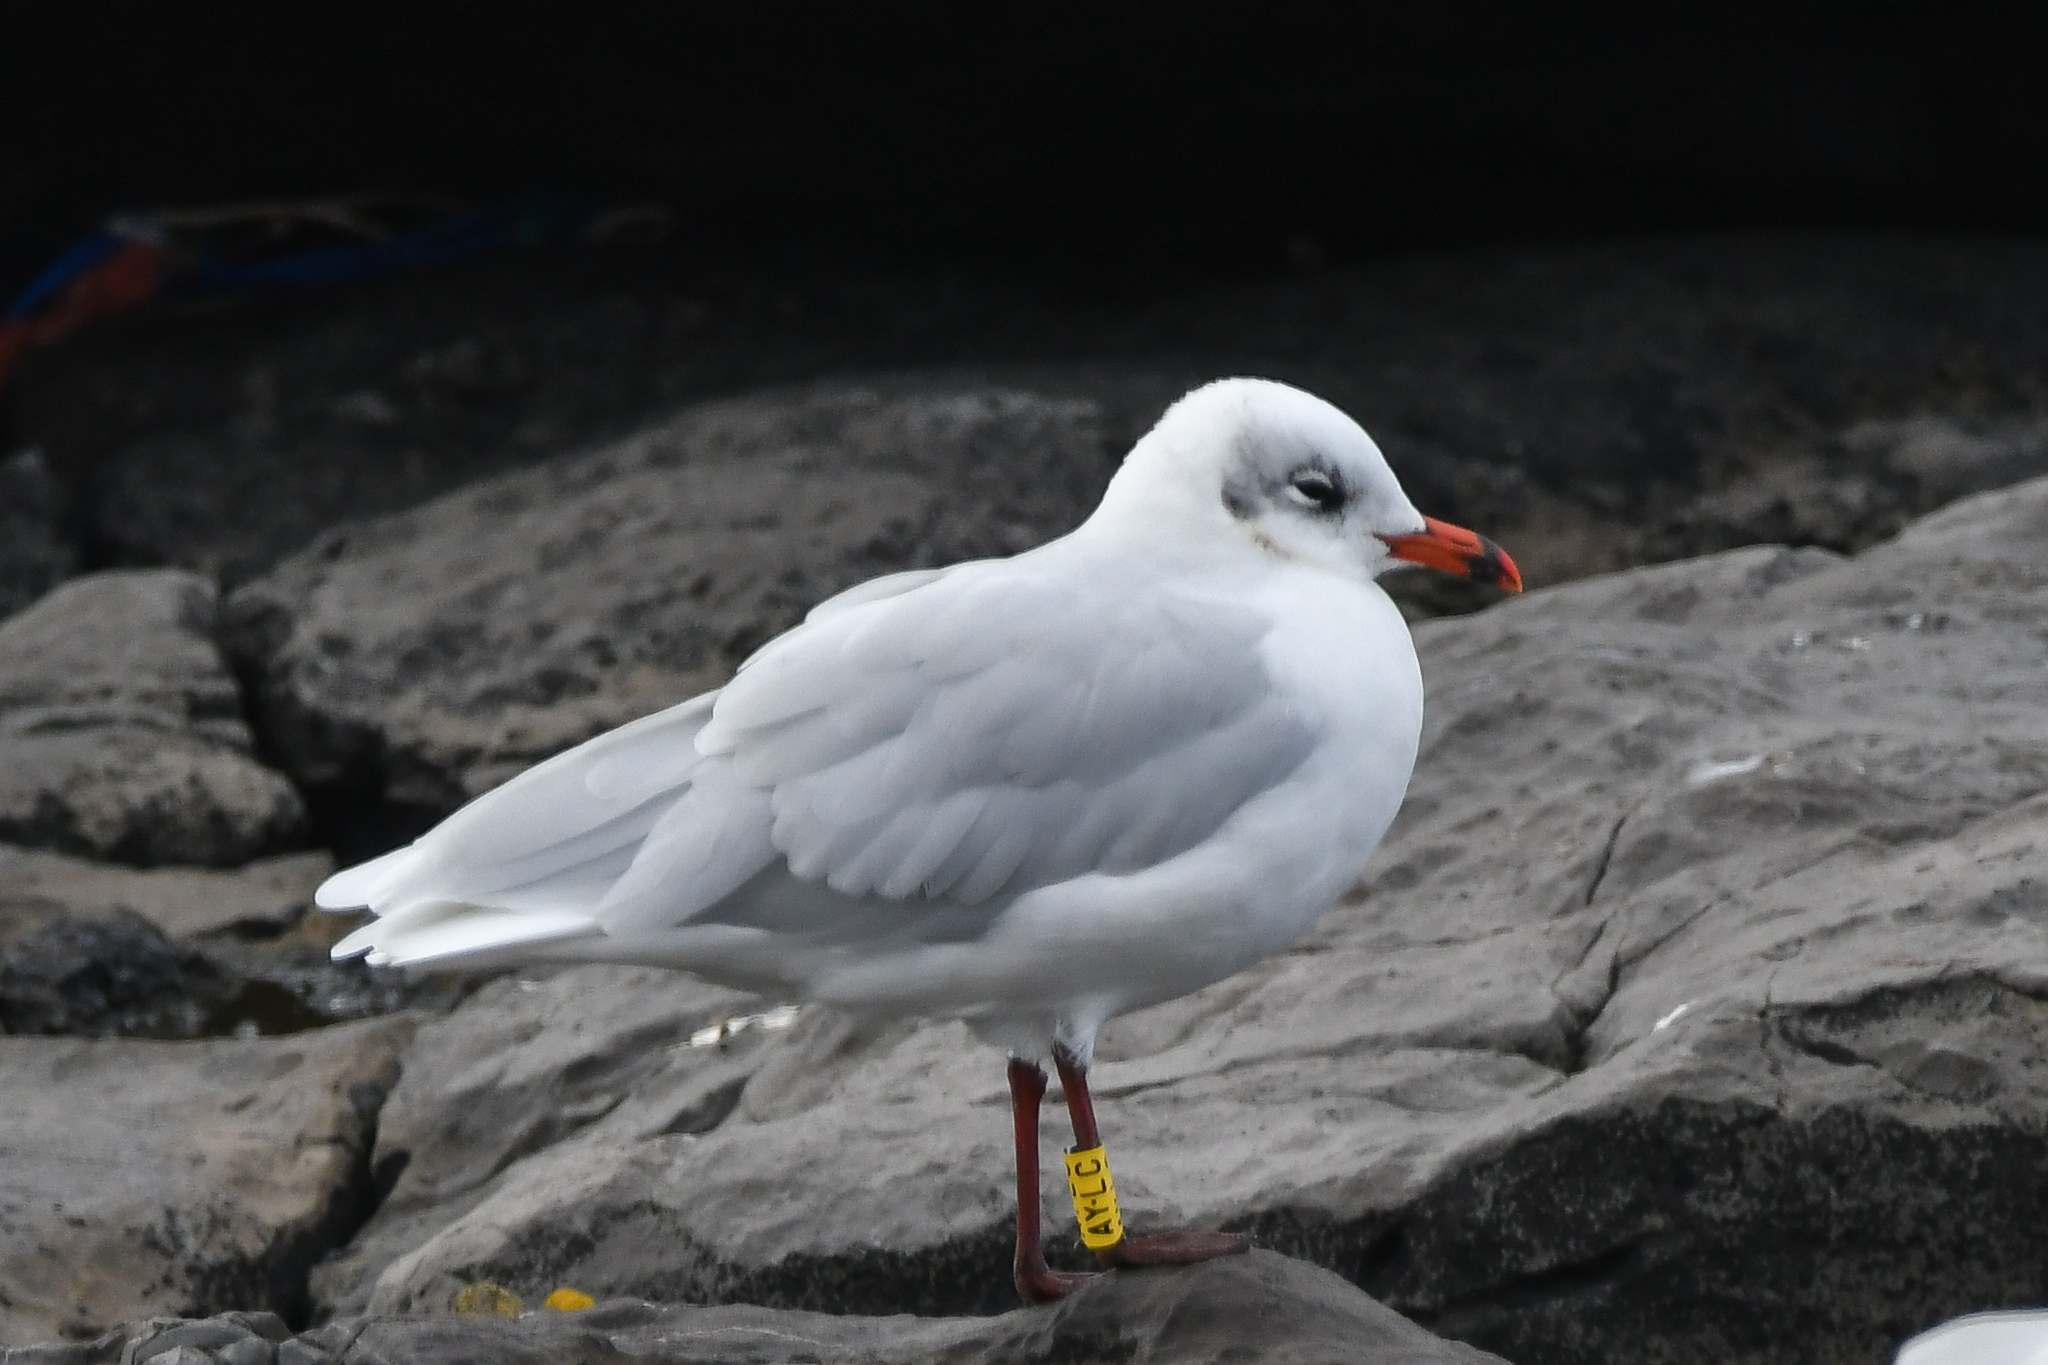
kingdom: Animalia
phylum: Chordata
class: Aves
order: Charadriiformes
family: Laridae
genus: Ichthyaetus
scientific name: Ichthyaetus melanocephalus
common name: Mediterranean gull
